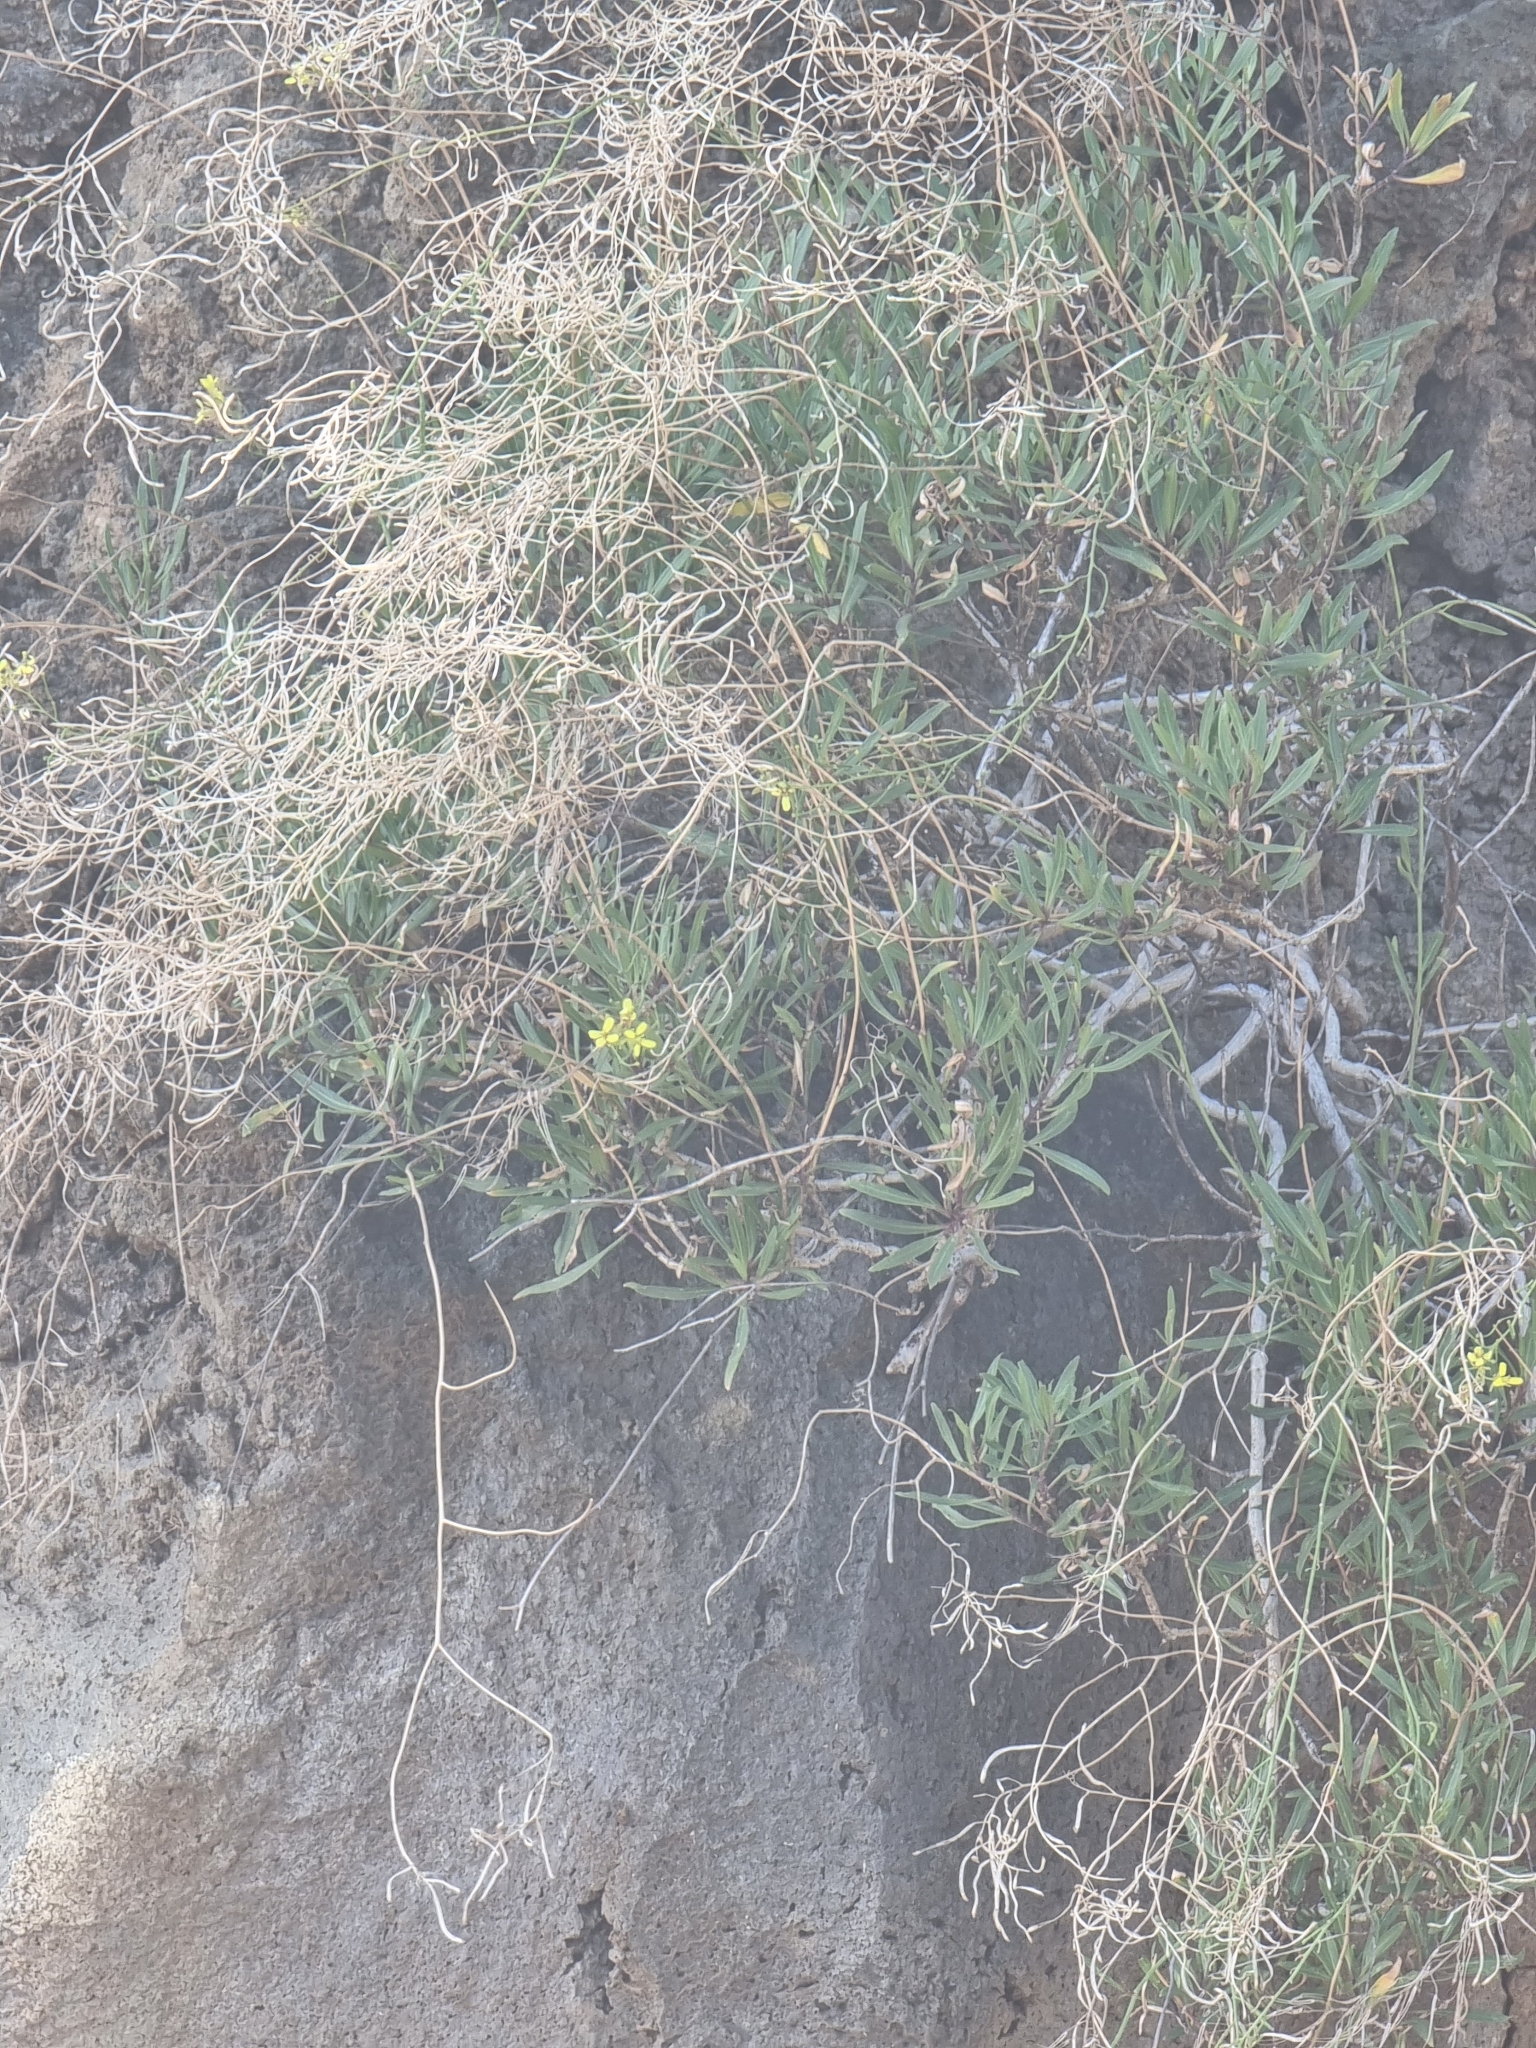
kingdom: Plantae
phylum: Tracheophyta
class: Magnoliopsida
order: Brassicales
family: Brassicaceae
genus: Sinapidendron
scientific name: Sinapidendron angustifolium
